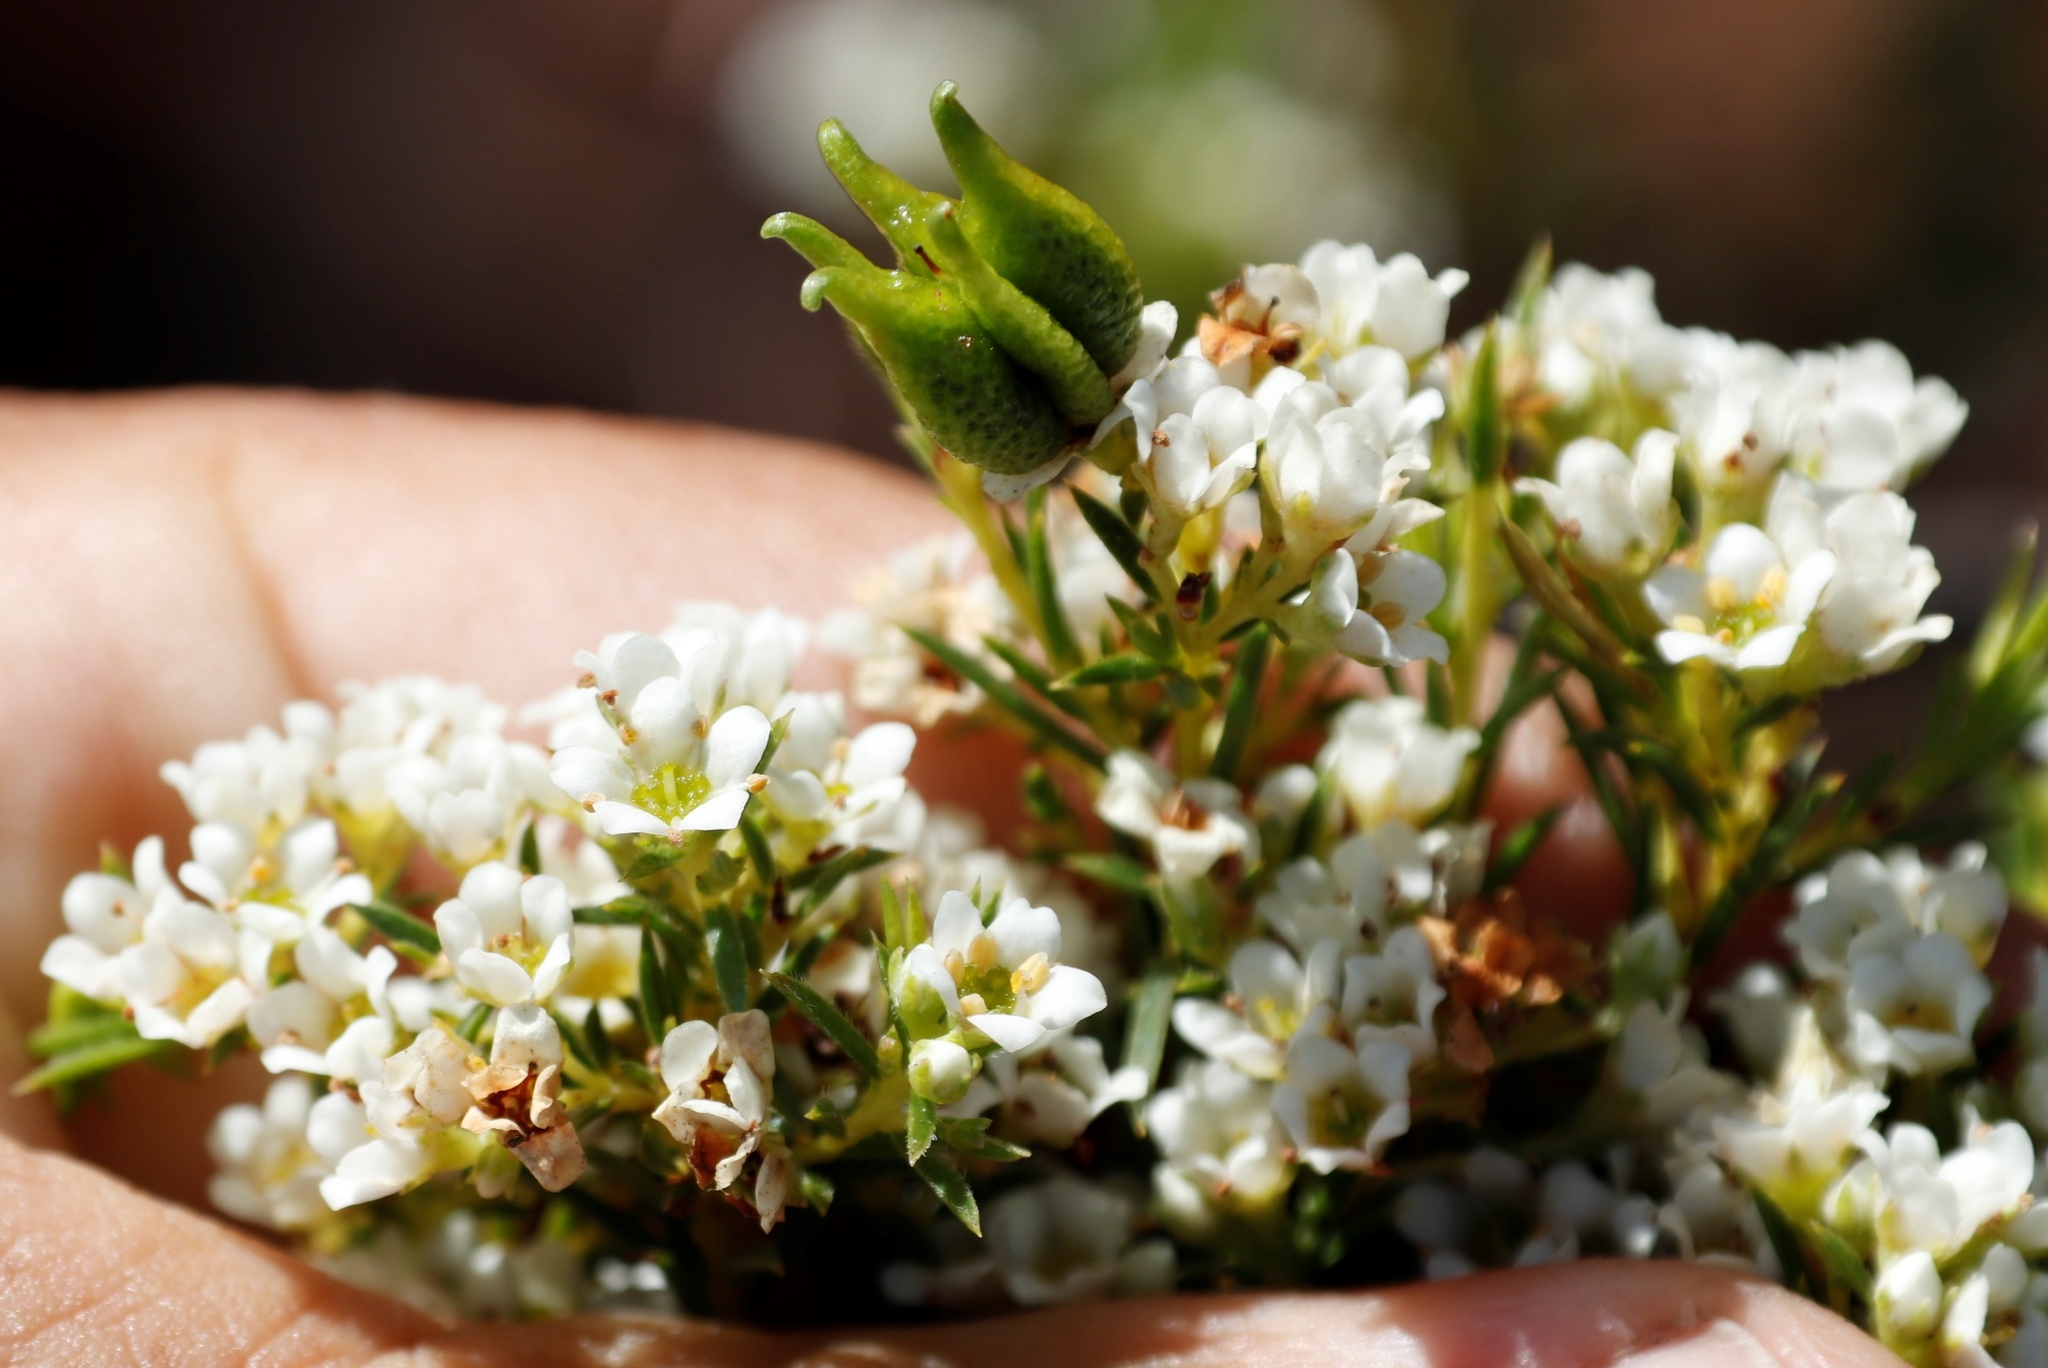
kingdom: Plantae
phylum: Tracheophyta
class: Magnoliopsida
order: Sapindales
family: Rutaceae
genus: Diosma
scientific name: Diosma hirsuta
